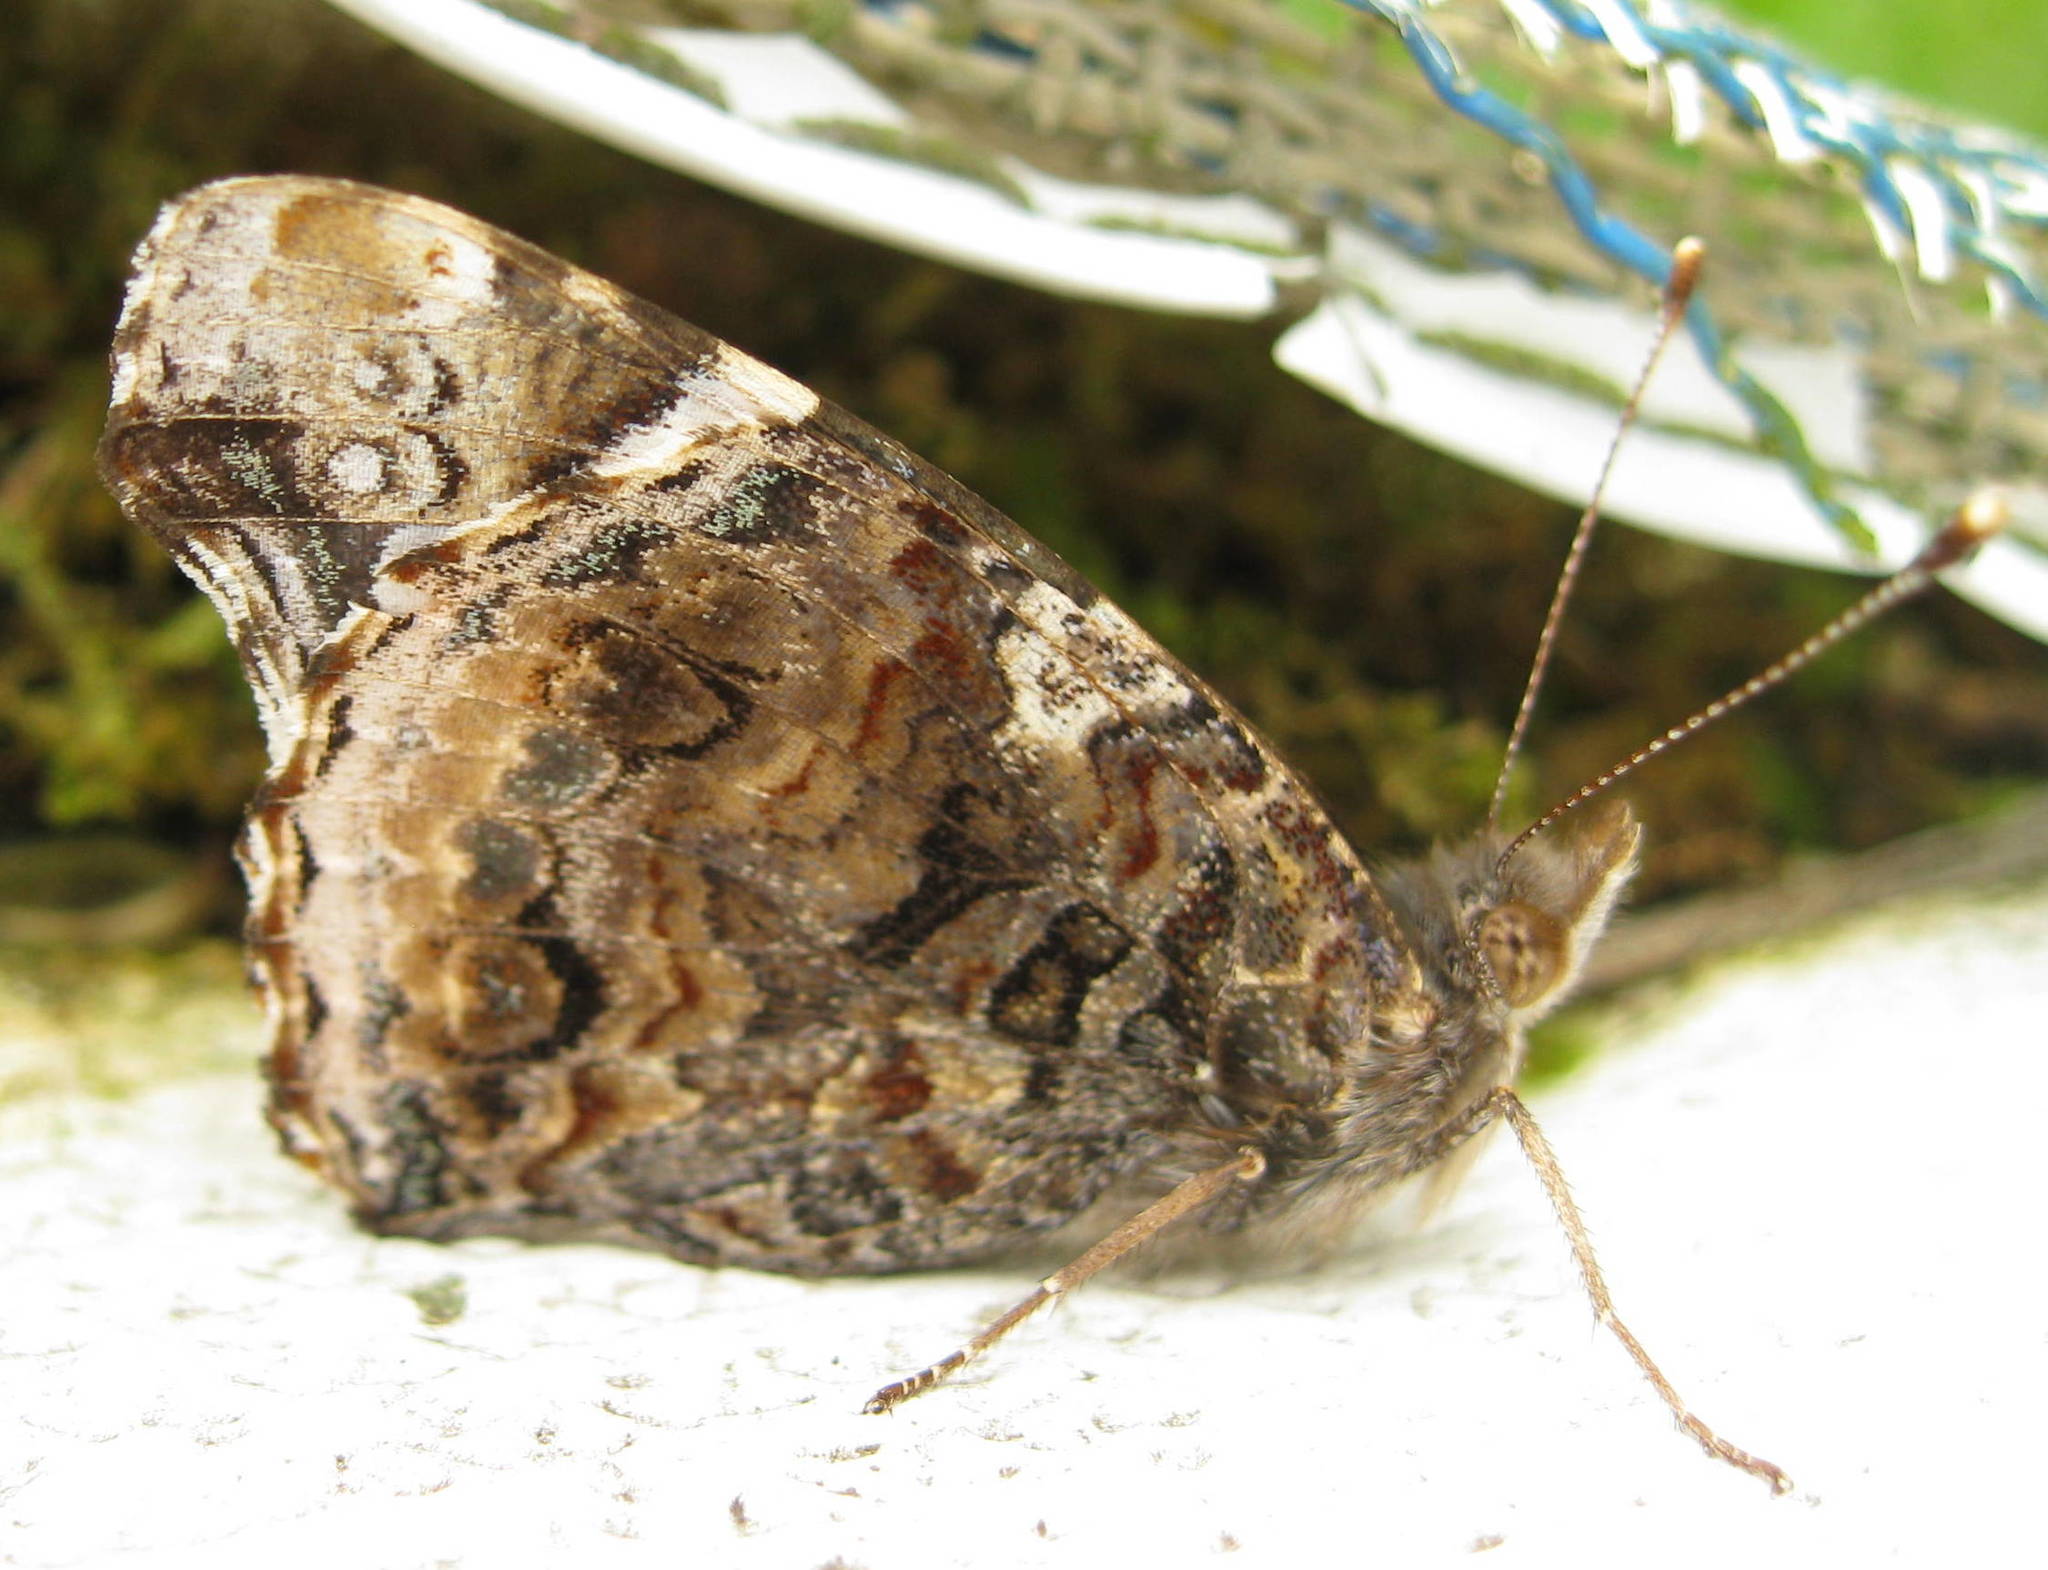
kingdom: Animalia
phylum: Arthropoda
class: Insecta
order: Lepidoptera
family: Nymphalidae
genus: Vanessa
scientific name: Vanessa atalanta
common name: Red admiral
